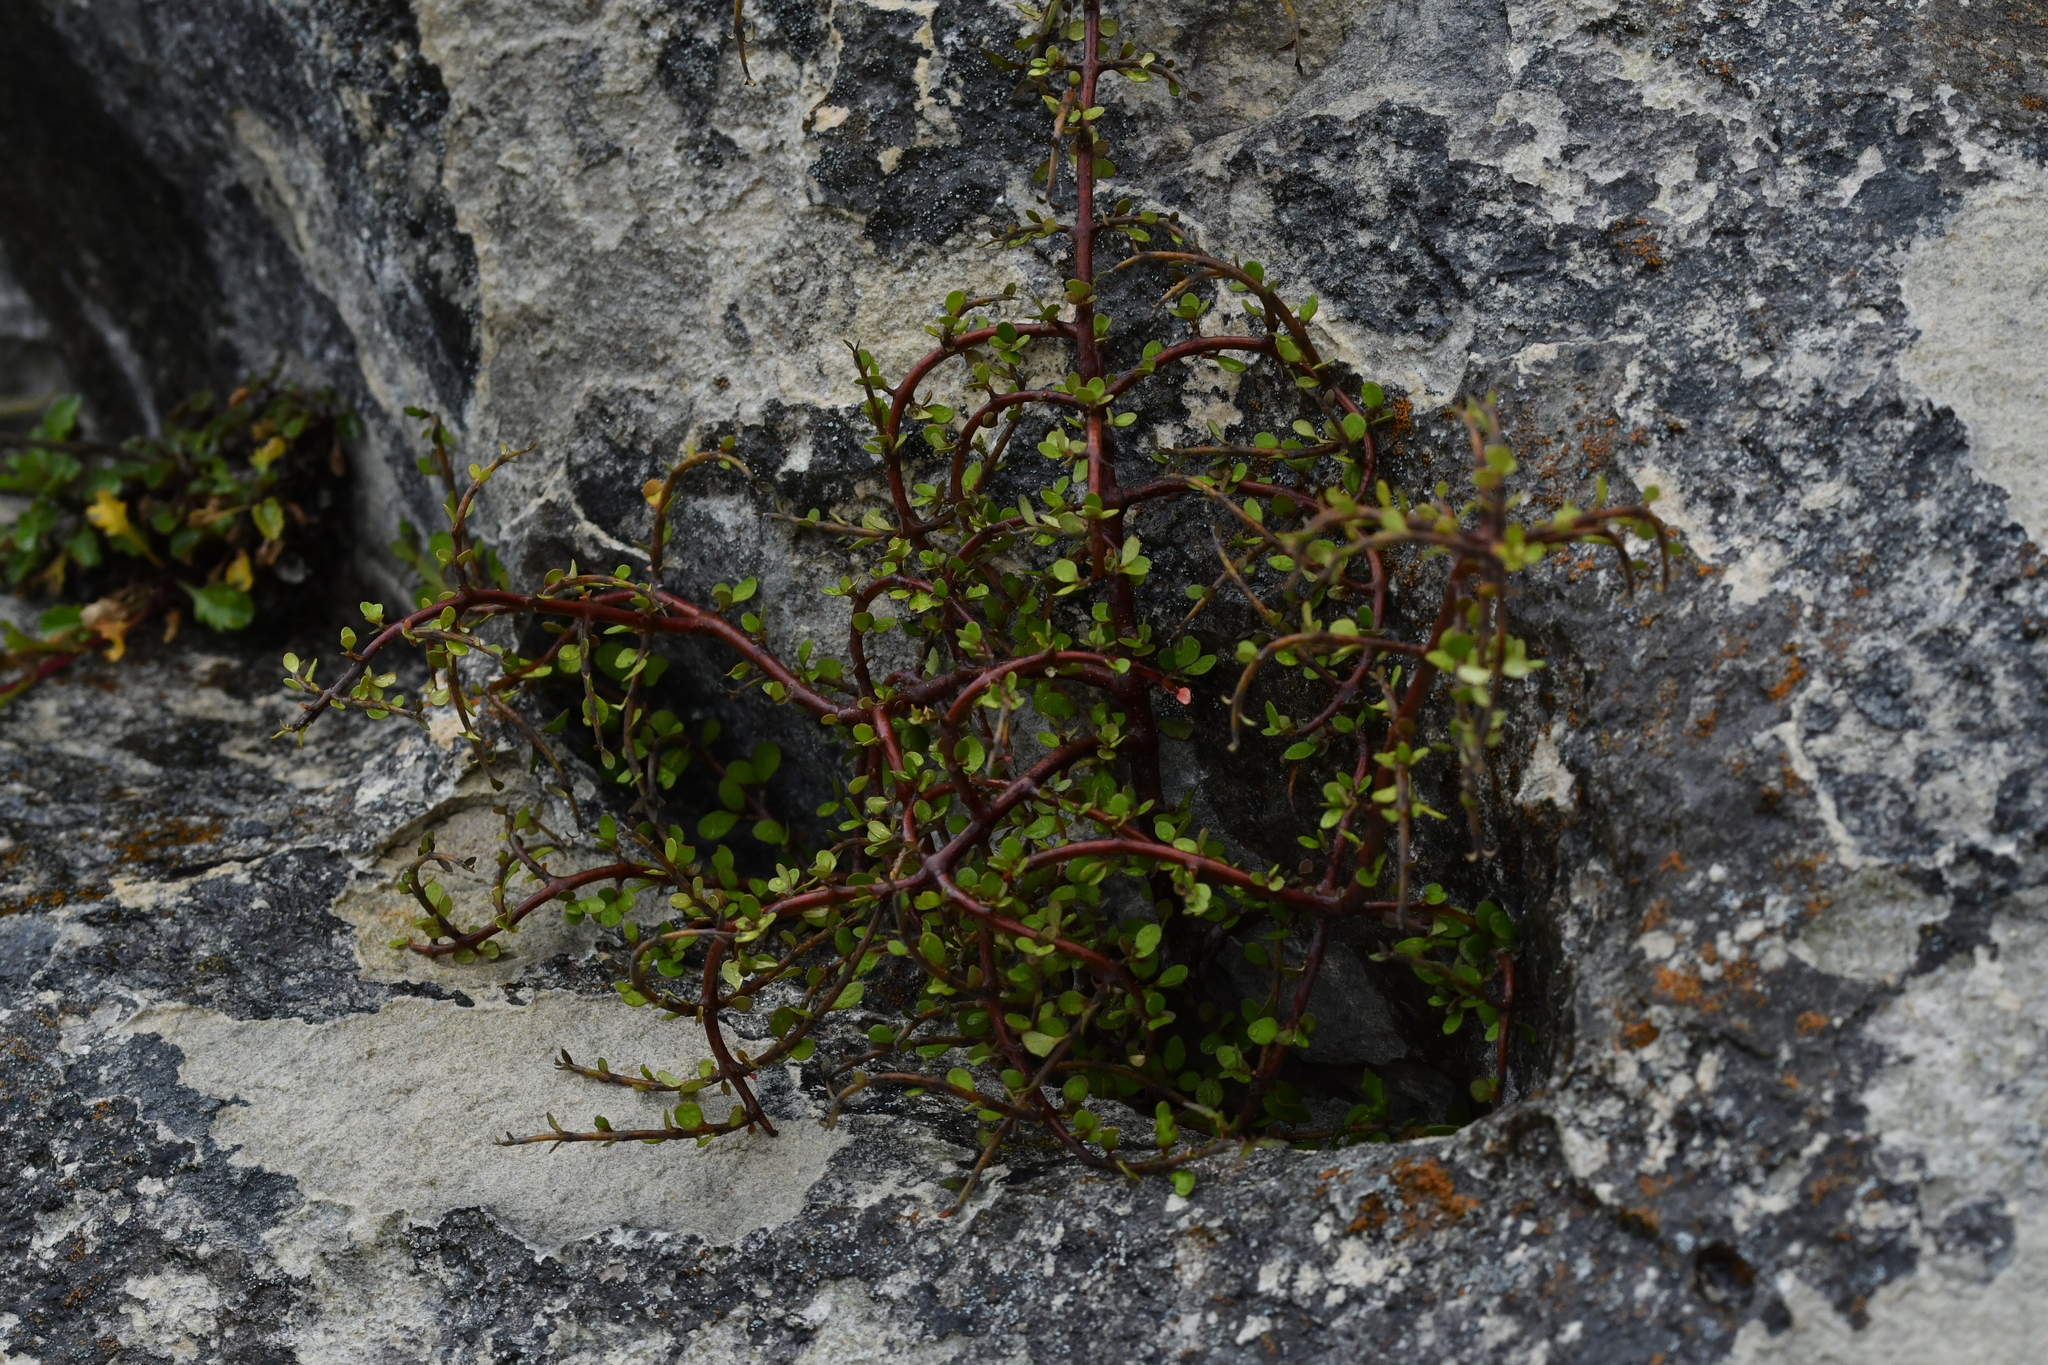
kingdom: Plantae
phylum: Tracheophyta
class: Magnoliopsida
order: Oxalidales
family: Elaeocarpaceae
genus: Aristotelia
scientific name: Aristotelia fruticosa
